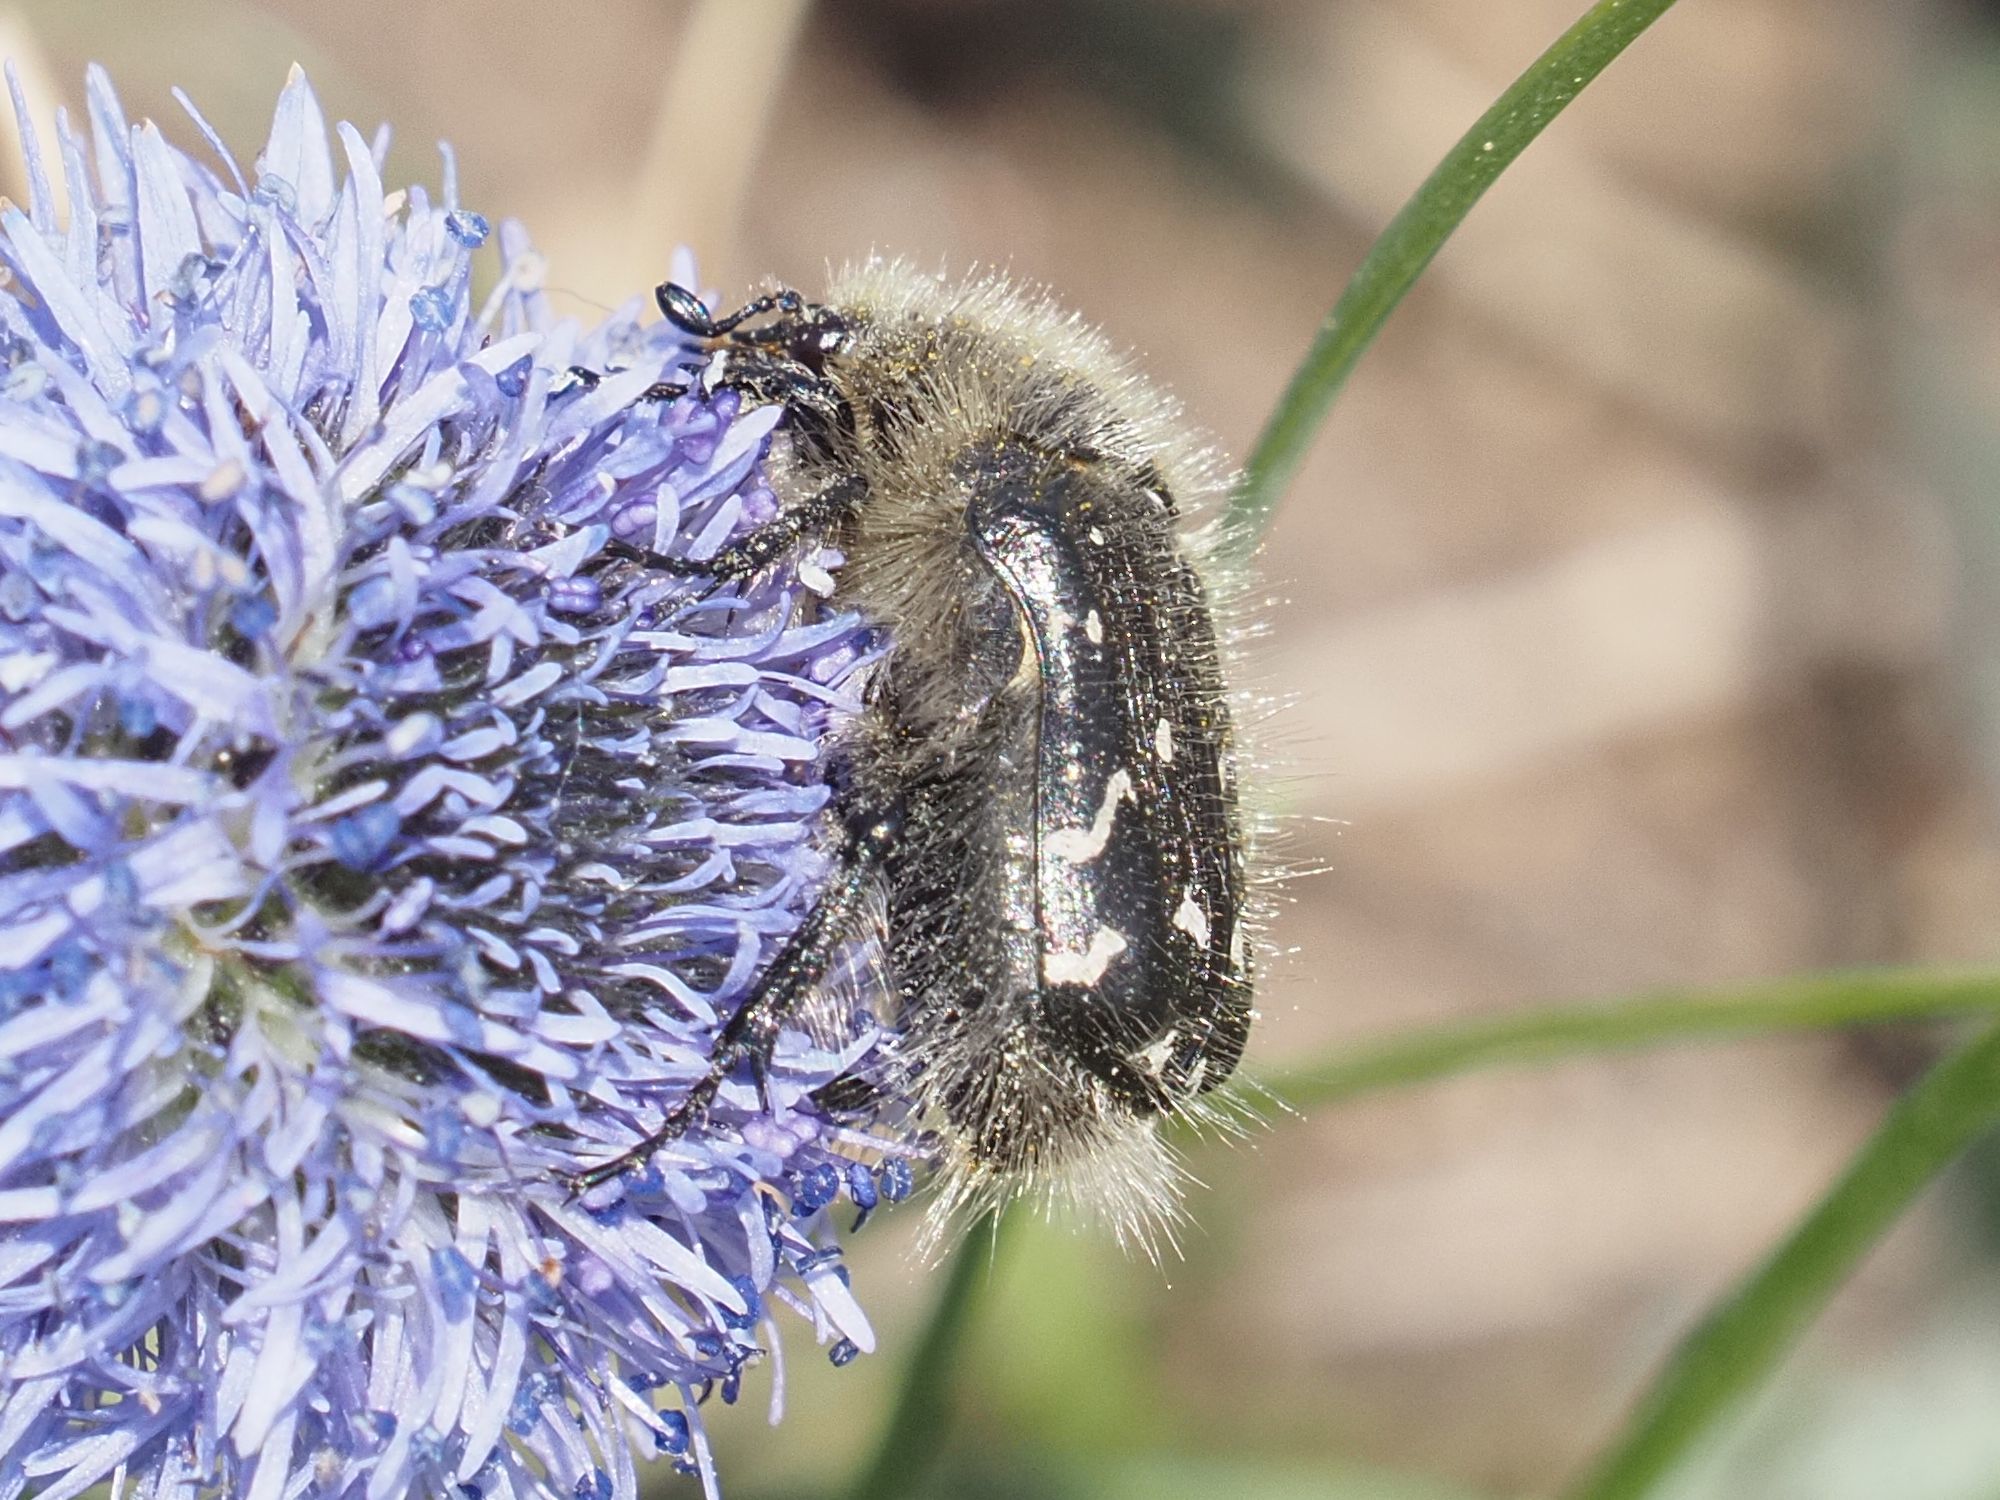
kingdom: Animalia
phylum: Arthropoda
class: Insecta
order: Coleoptera
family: Scarabaeidae
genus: Tropinota
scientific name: Tropinota hirta
